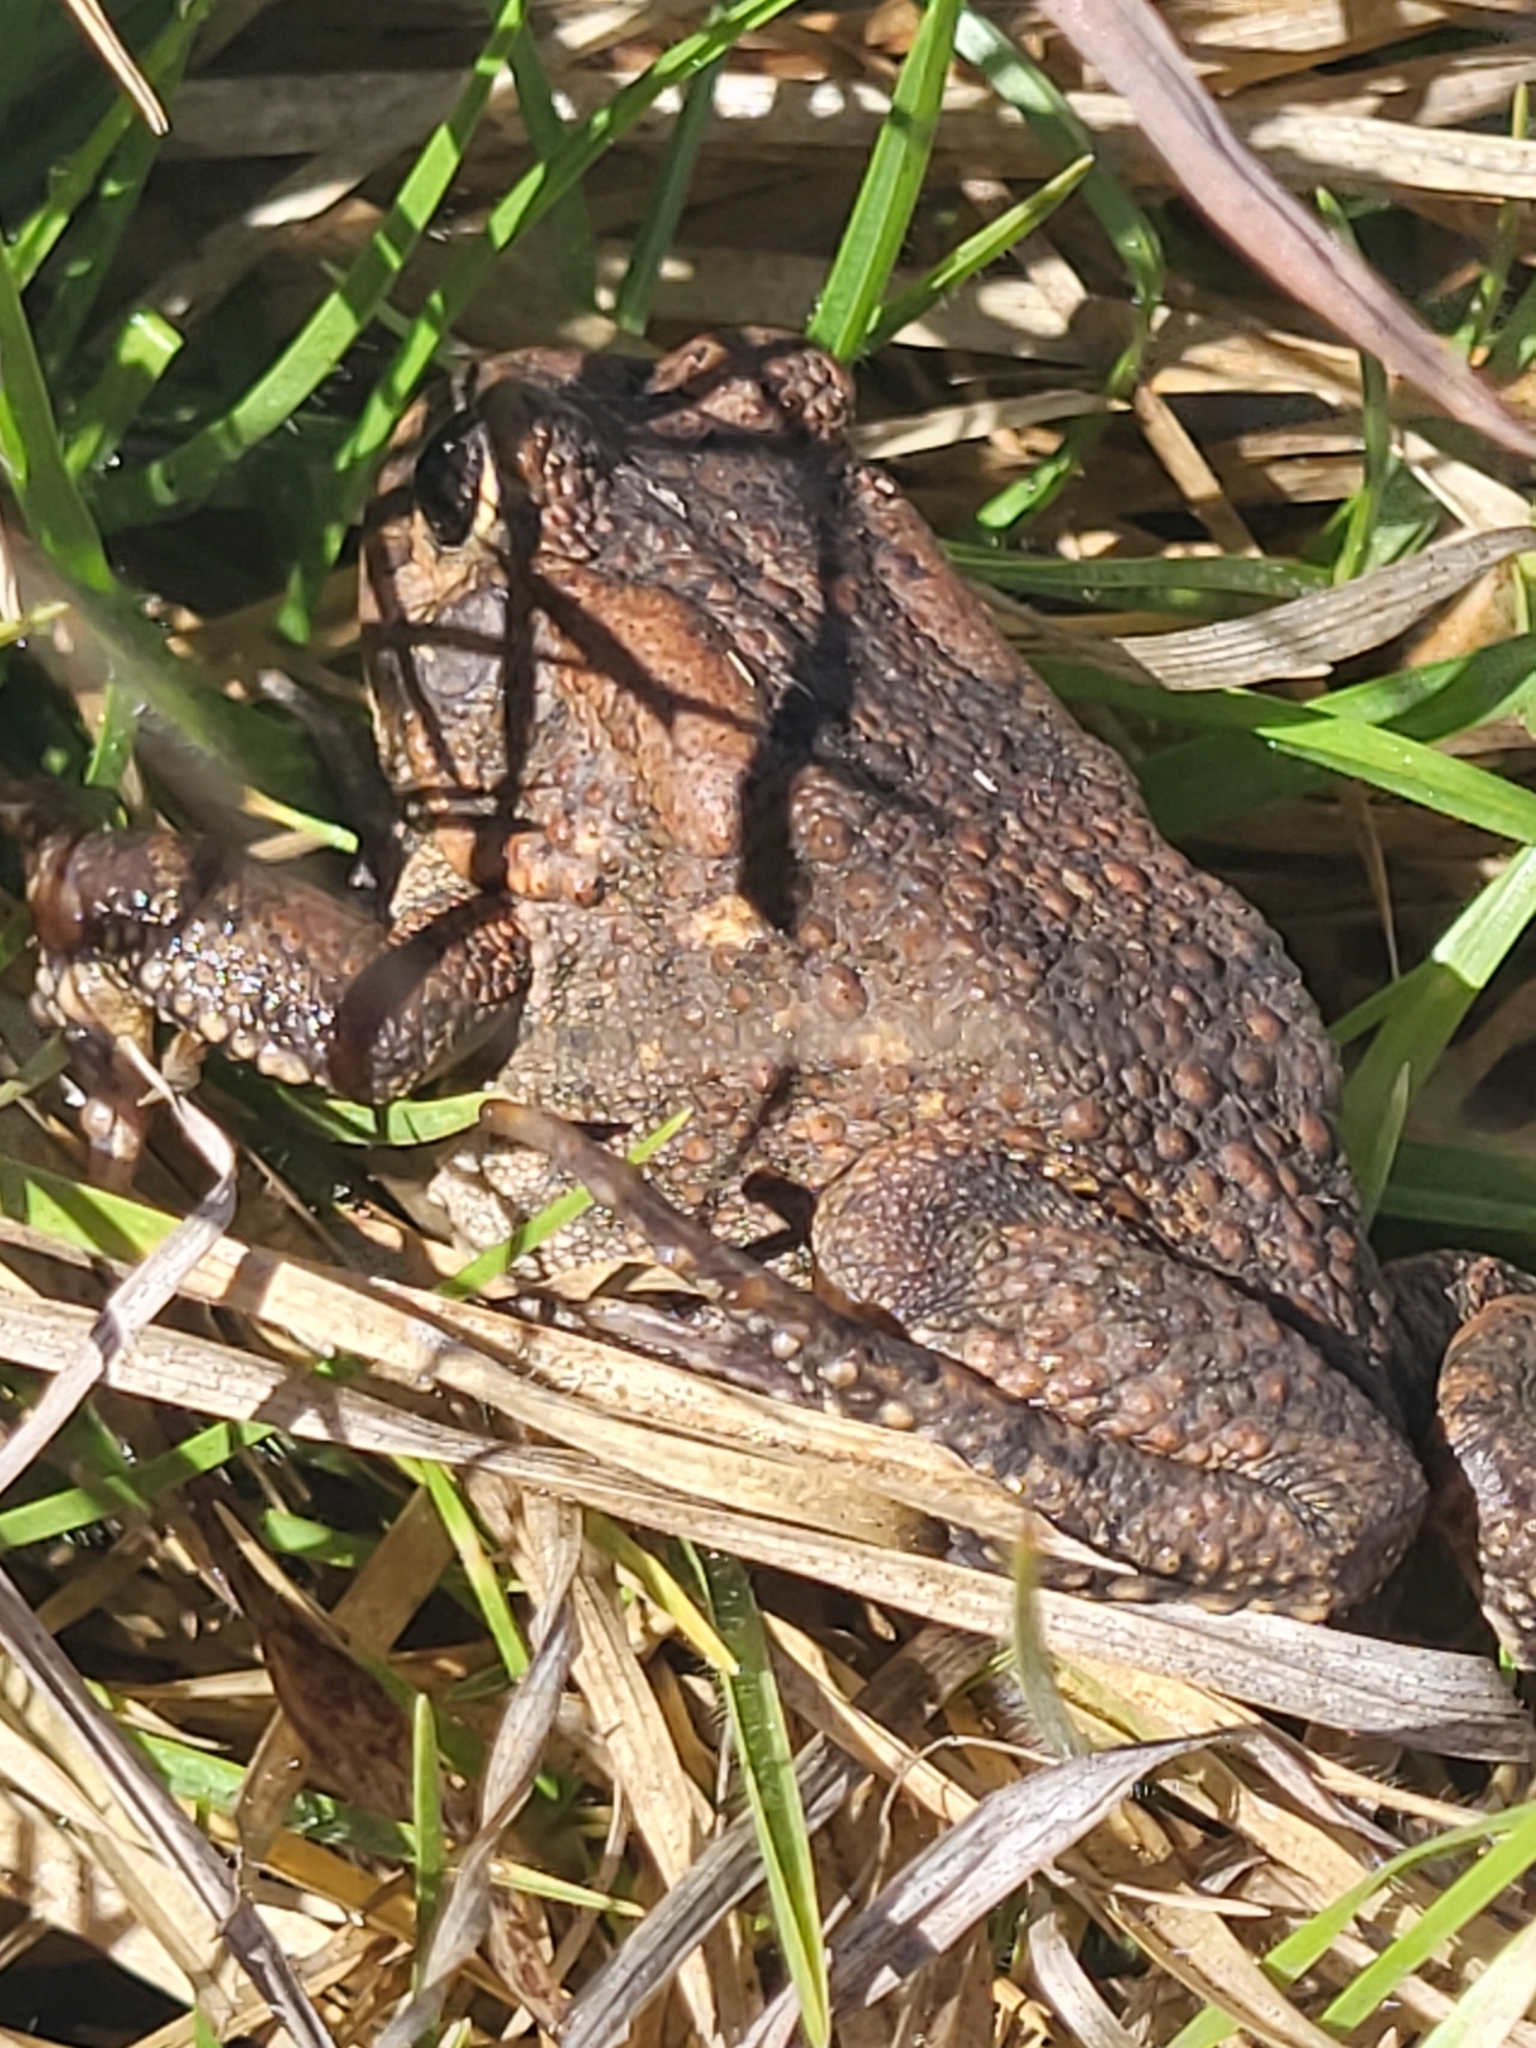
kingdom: Animalia
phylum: Chordata
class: Amphibia
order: Anura
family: Bufonidae
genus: Sclerophrys
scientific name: Sclerophrys gutturalis
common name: African common toad
